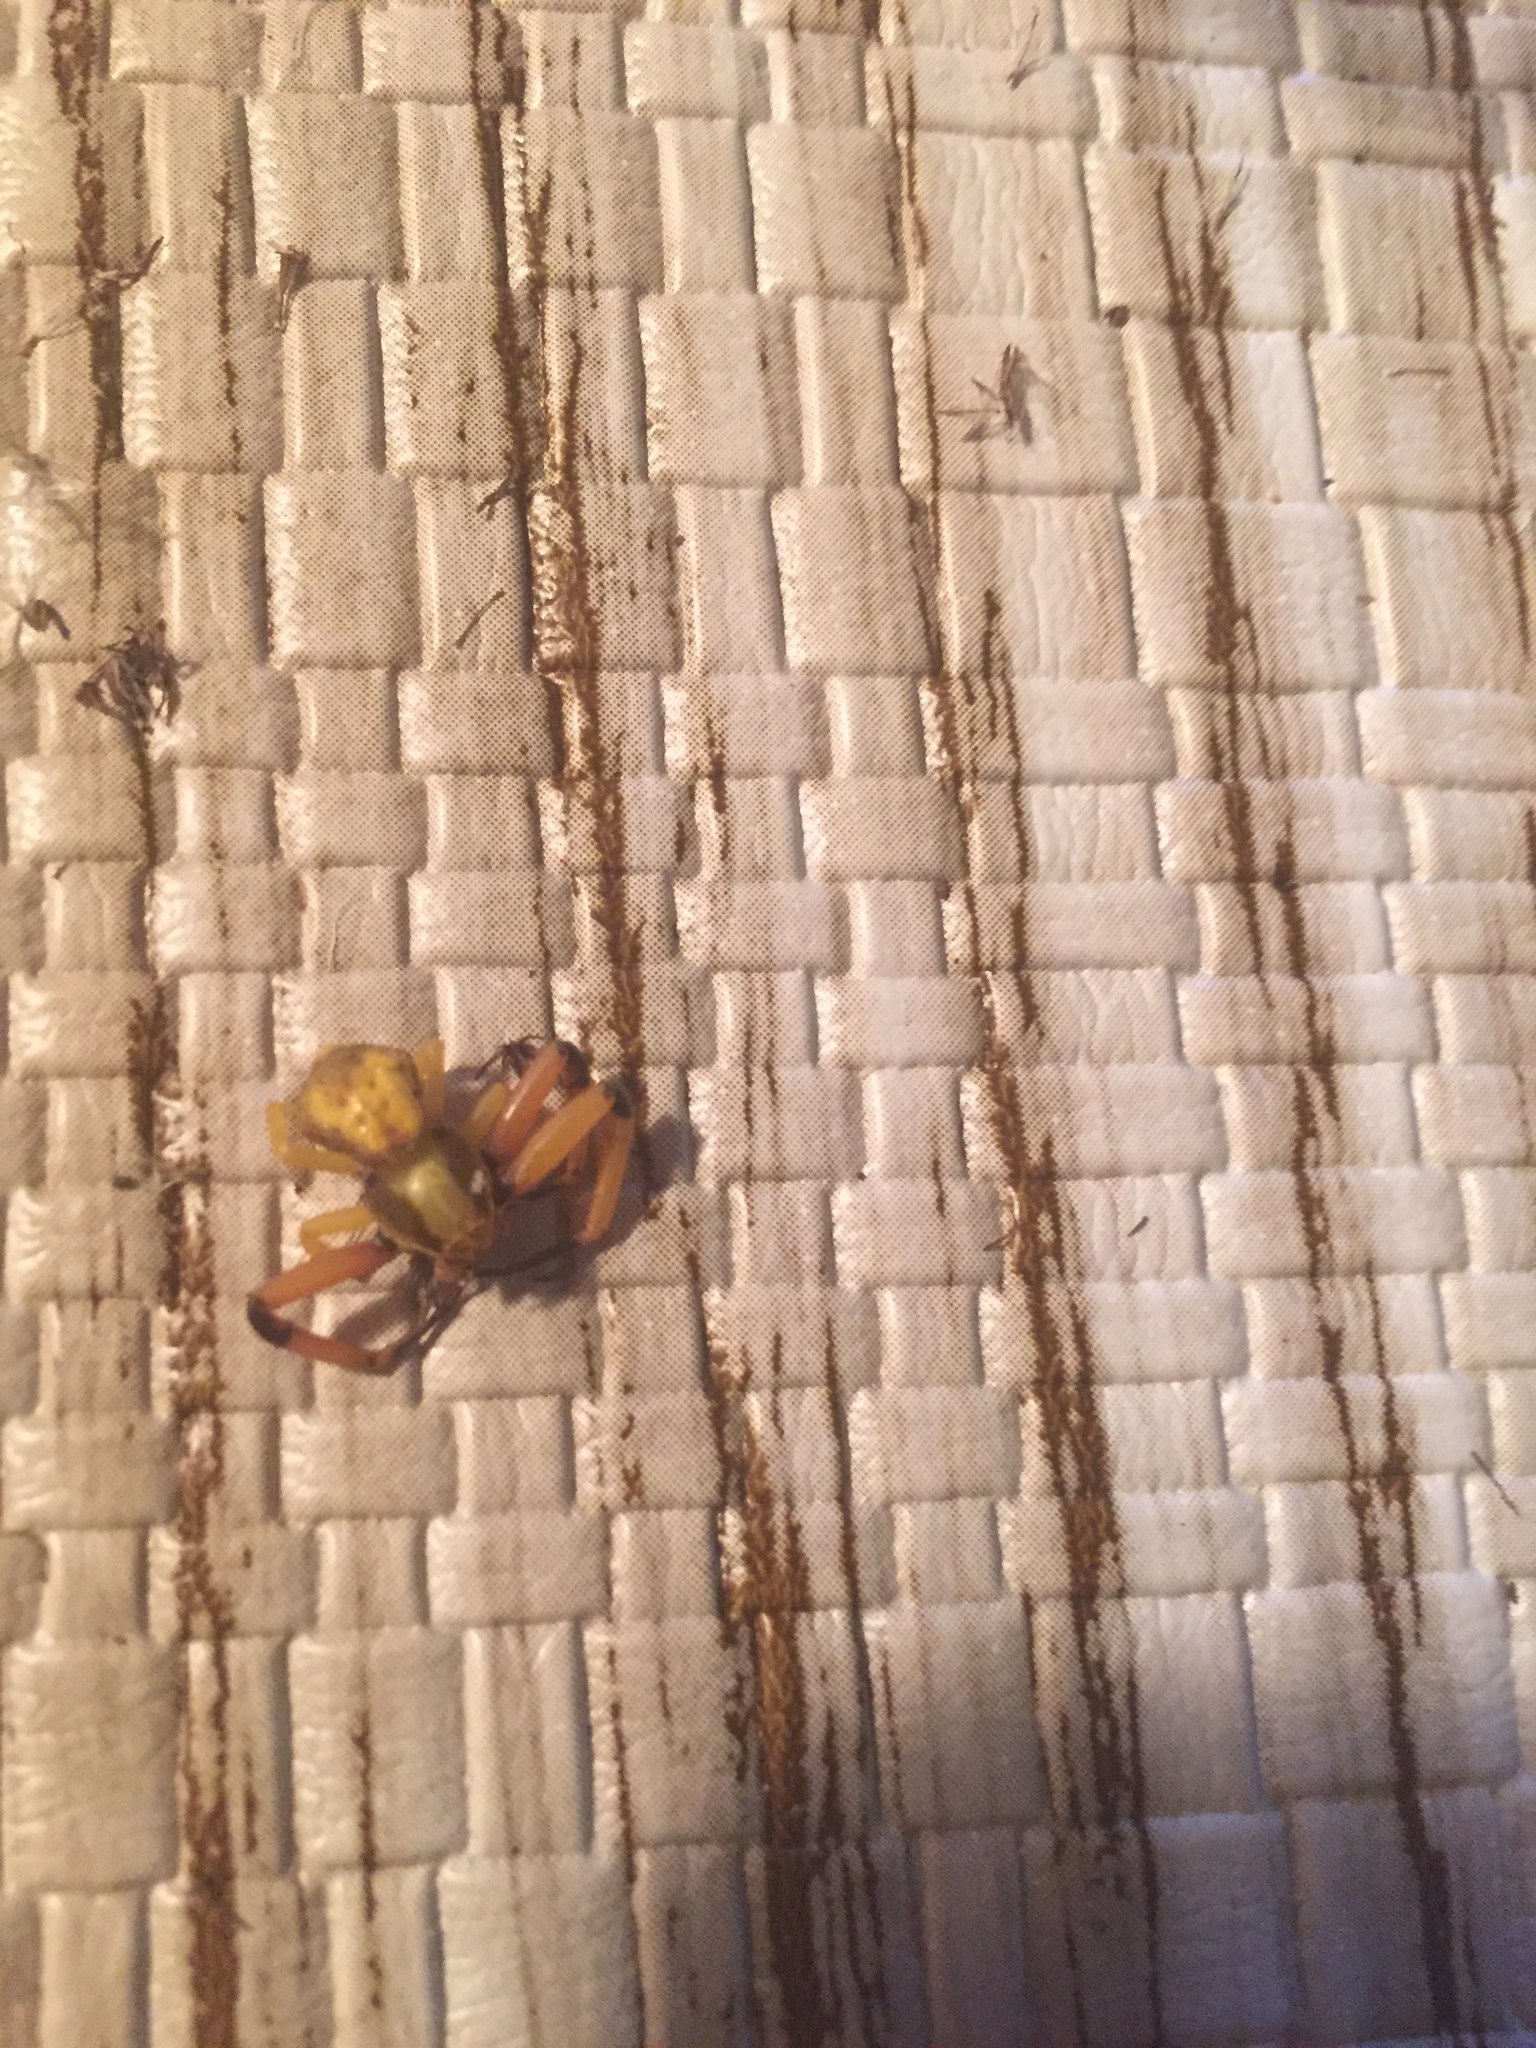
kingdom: Animalia
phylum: Arthropoda
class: Arachnida
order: Araneae
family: Thomisidae
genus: Misumenoides
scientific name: Misumenoides formosipes
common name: White-banded crab spider
